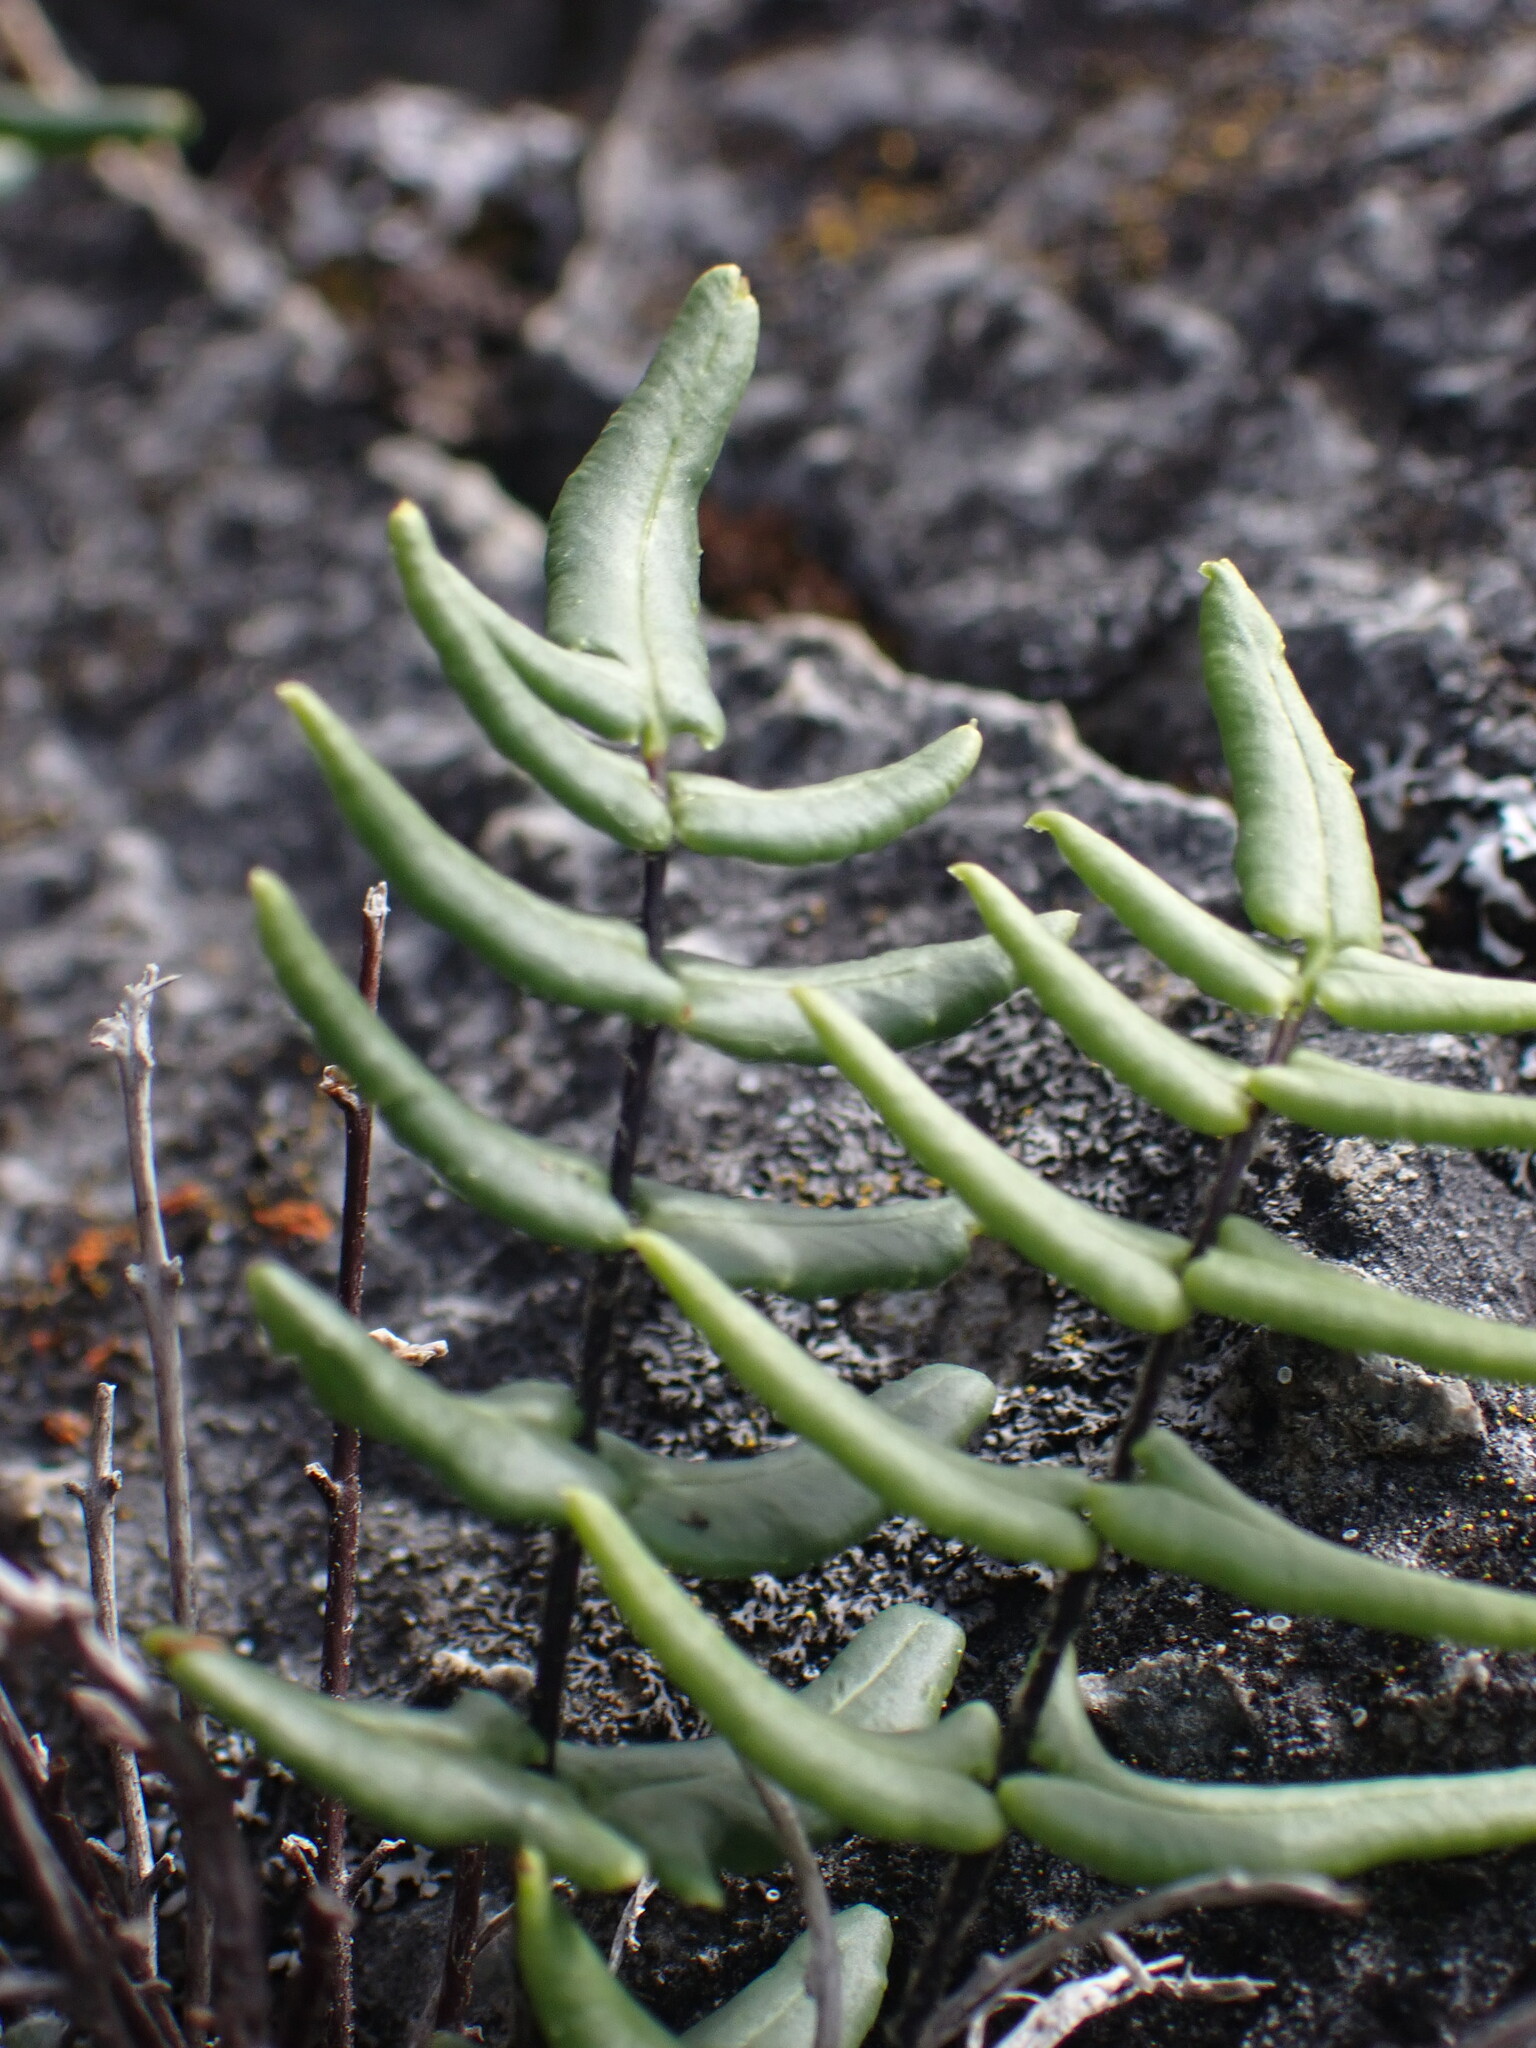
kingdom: Plantae
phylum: Tracheophyta
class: Polypodiopsida
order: Polypodiales
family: Pteridaceae
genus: Pellaea
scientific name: Pellaea gastonyi
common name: Gastony's cliffbrake
